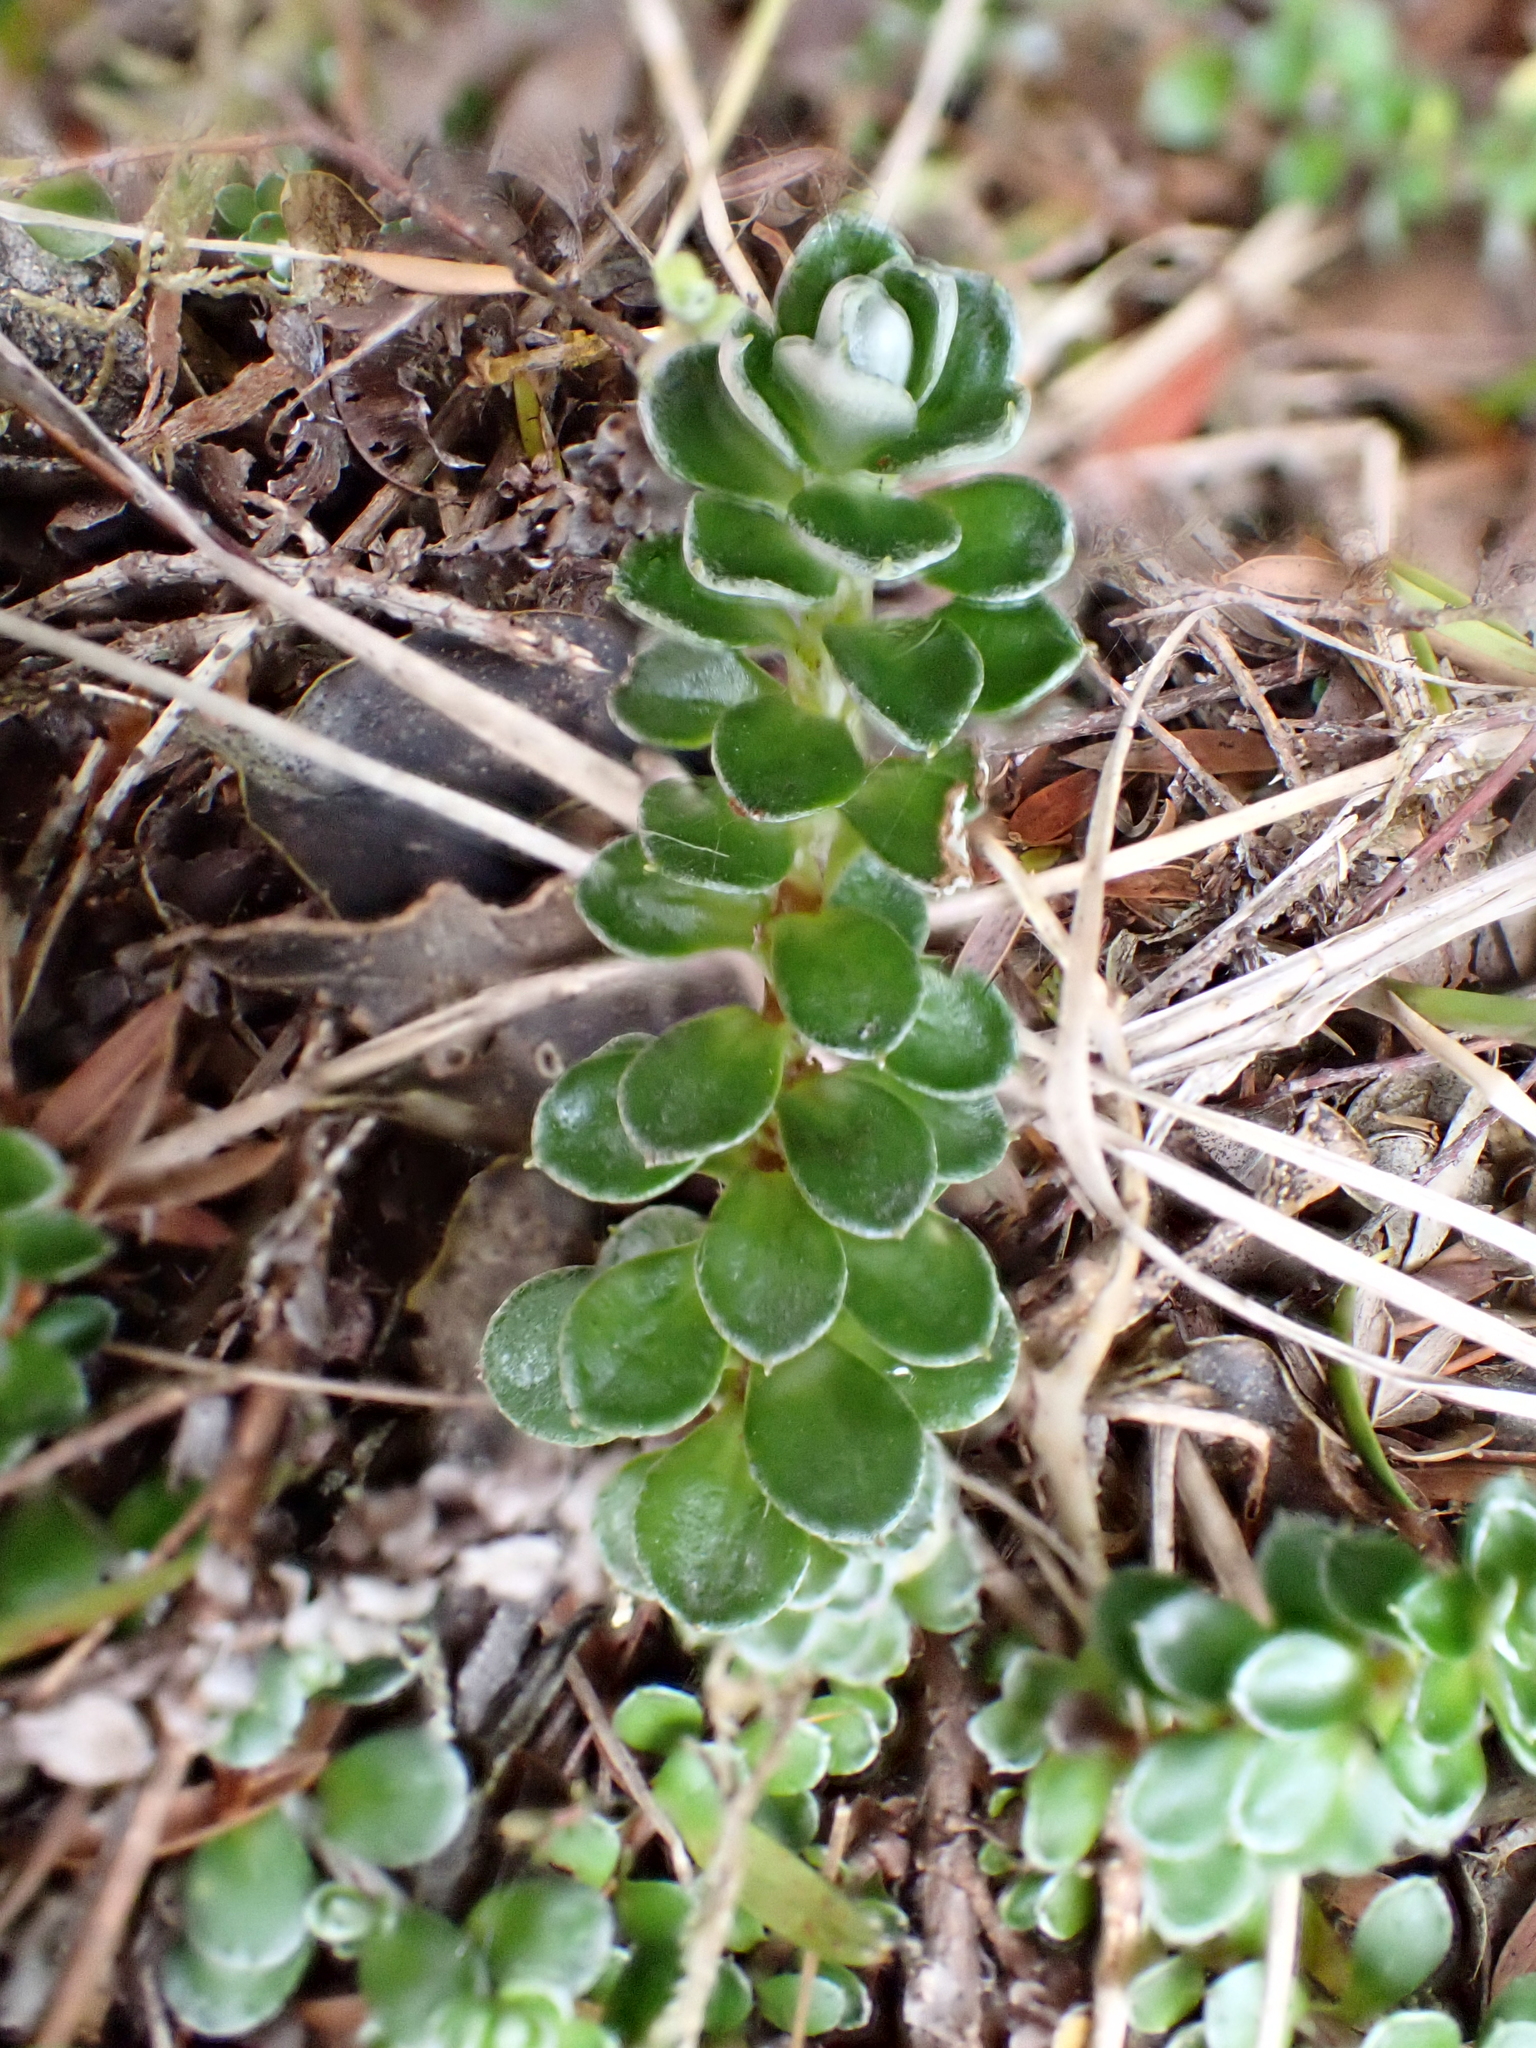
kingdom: Plantae
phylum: Tracheophyta
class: Magnoliopsida
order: Asterales
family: Asteraceae
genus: Anaphalioides
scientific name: Anaphalioides alpina
